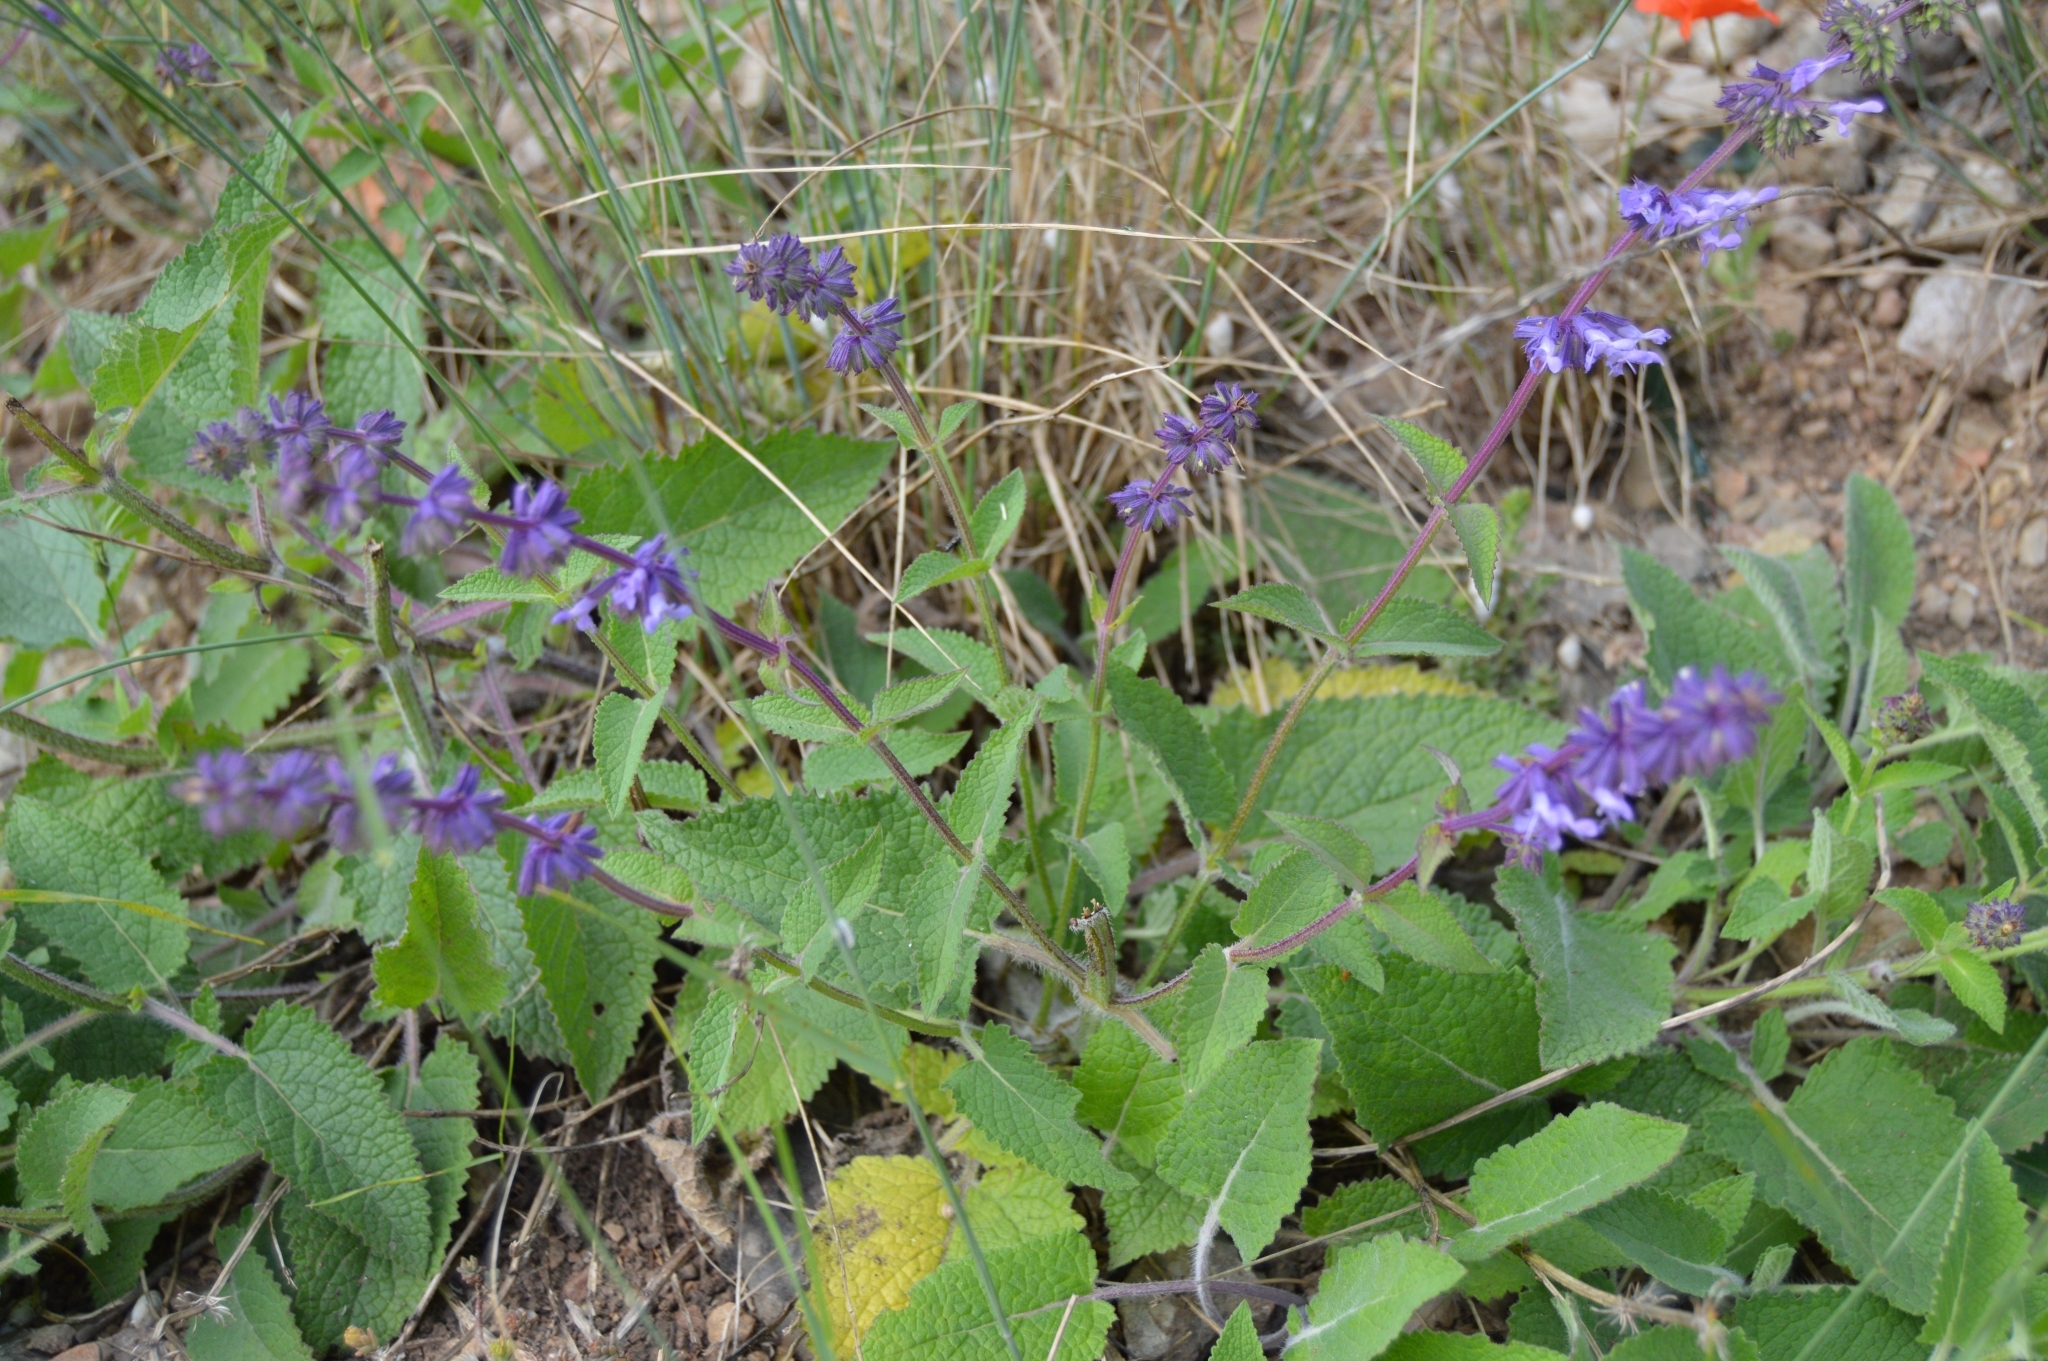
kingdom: Plantae
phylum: Tracheophyta
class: Magnoliopsida
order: Lamiales
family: Lamiaceae
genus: Salvia
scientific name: Salvia verticillata
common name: Whorled clary
